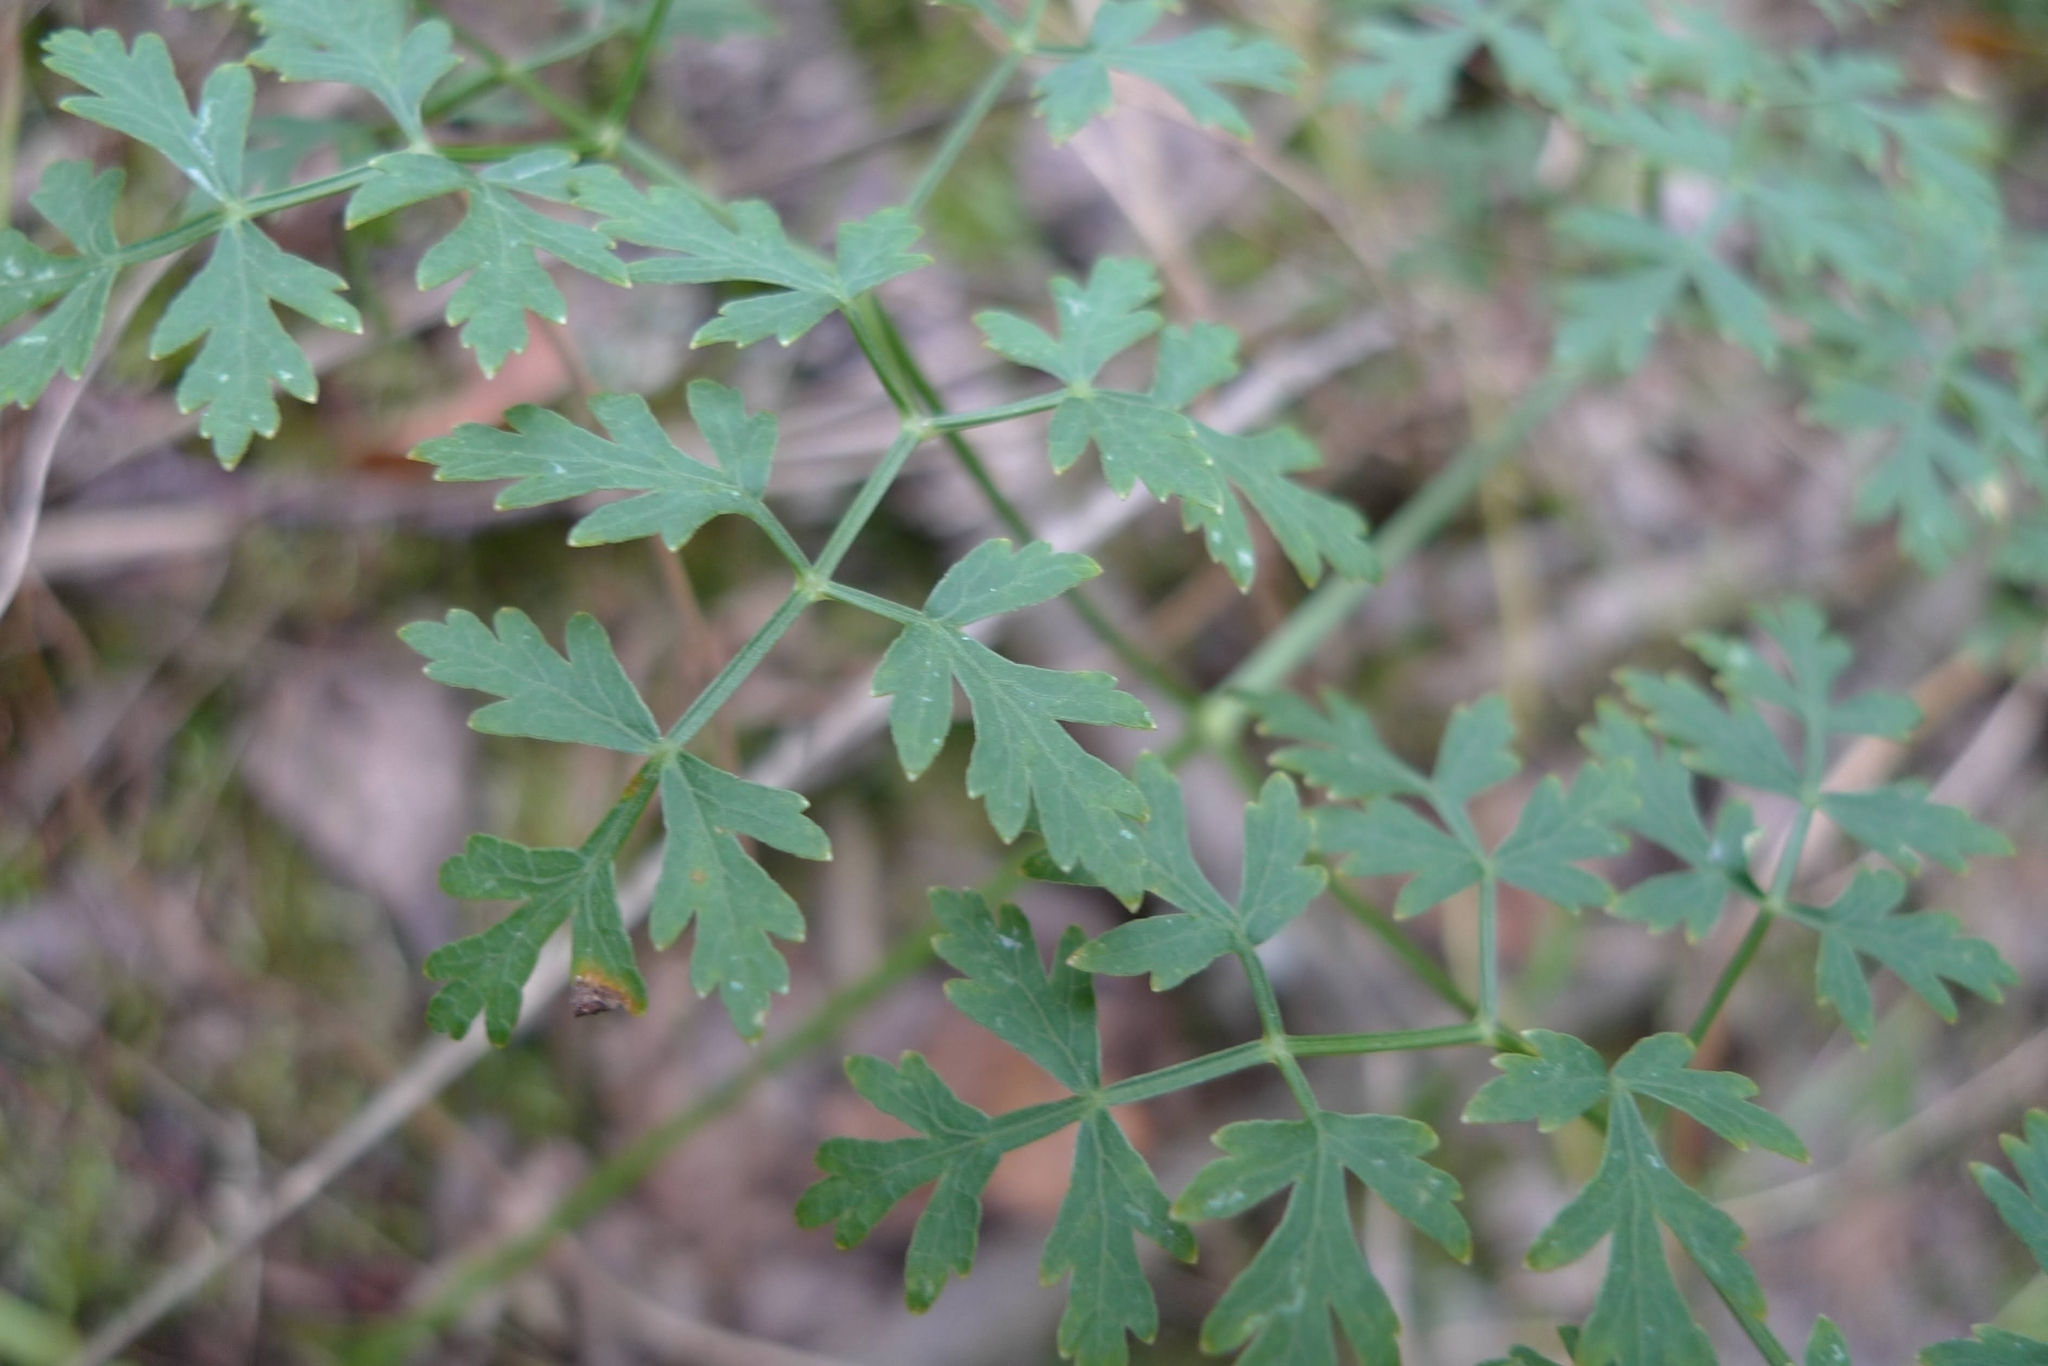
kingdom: Plantae
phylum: Tracheophyta
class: Magnoliopsida
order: Apiales
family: Apiaceae
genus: Oreoselinum
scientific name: Oreoselinum nigrum
